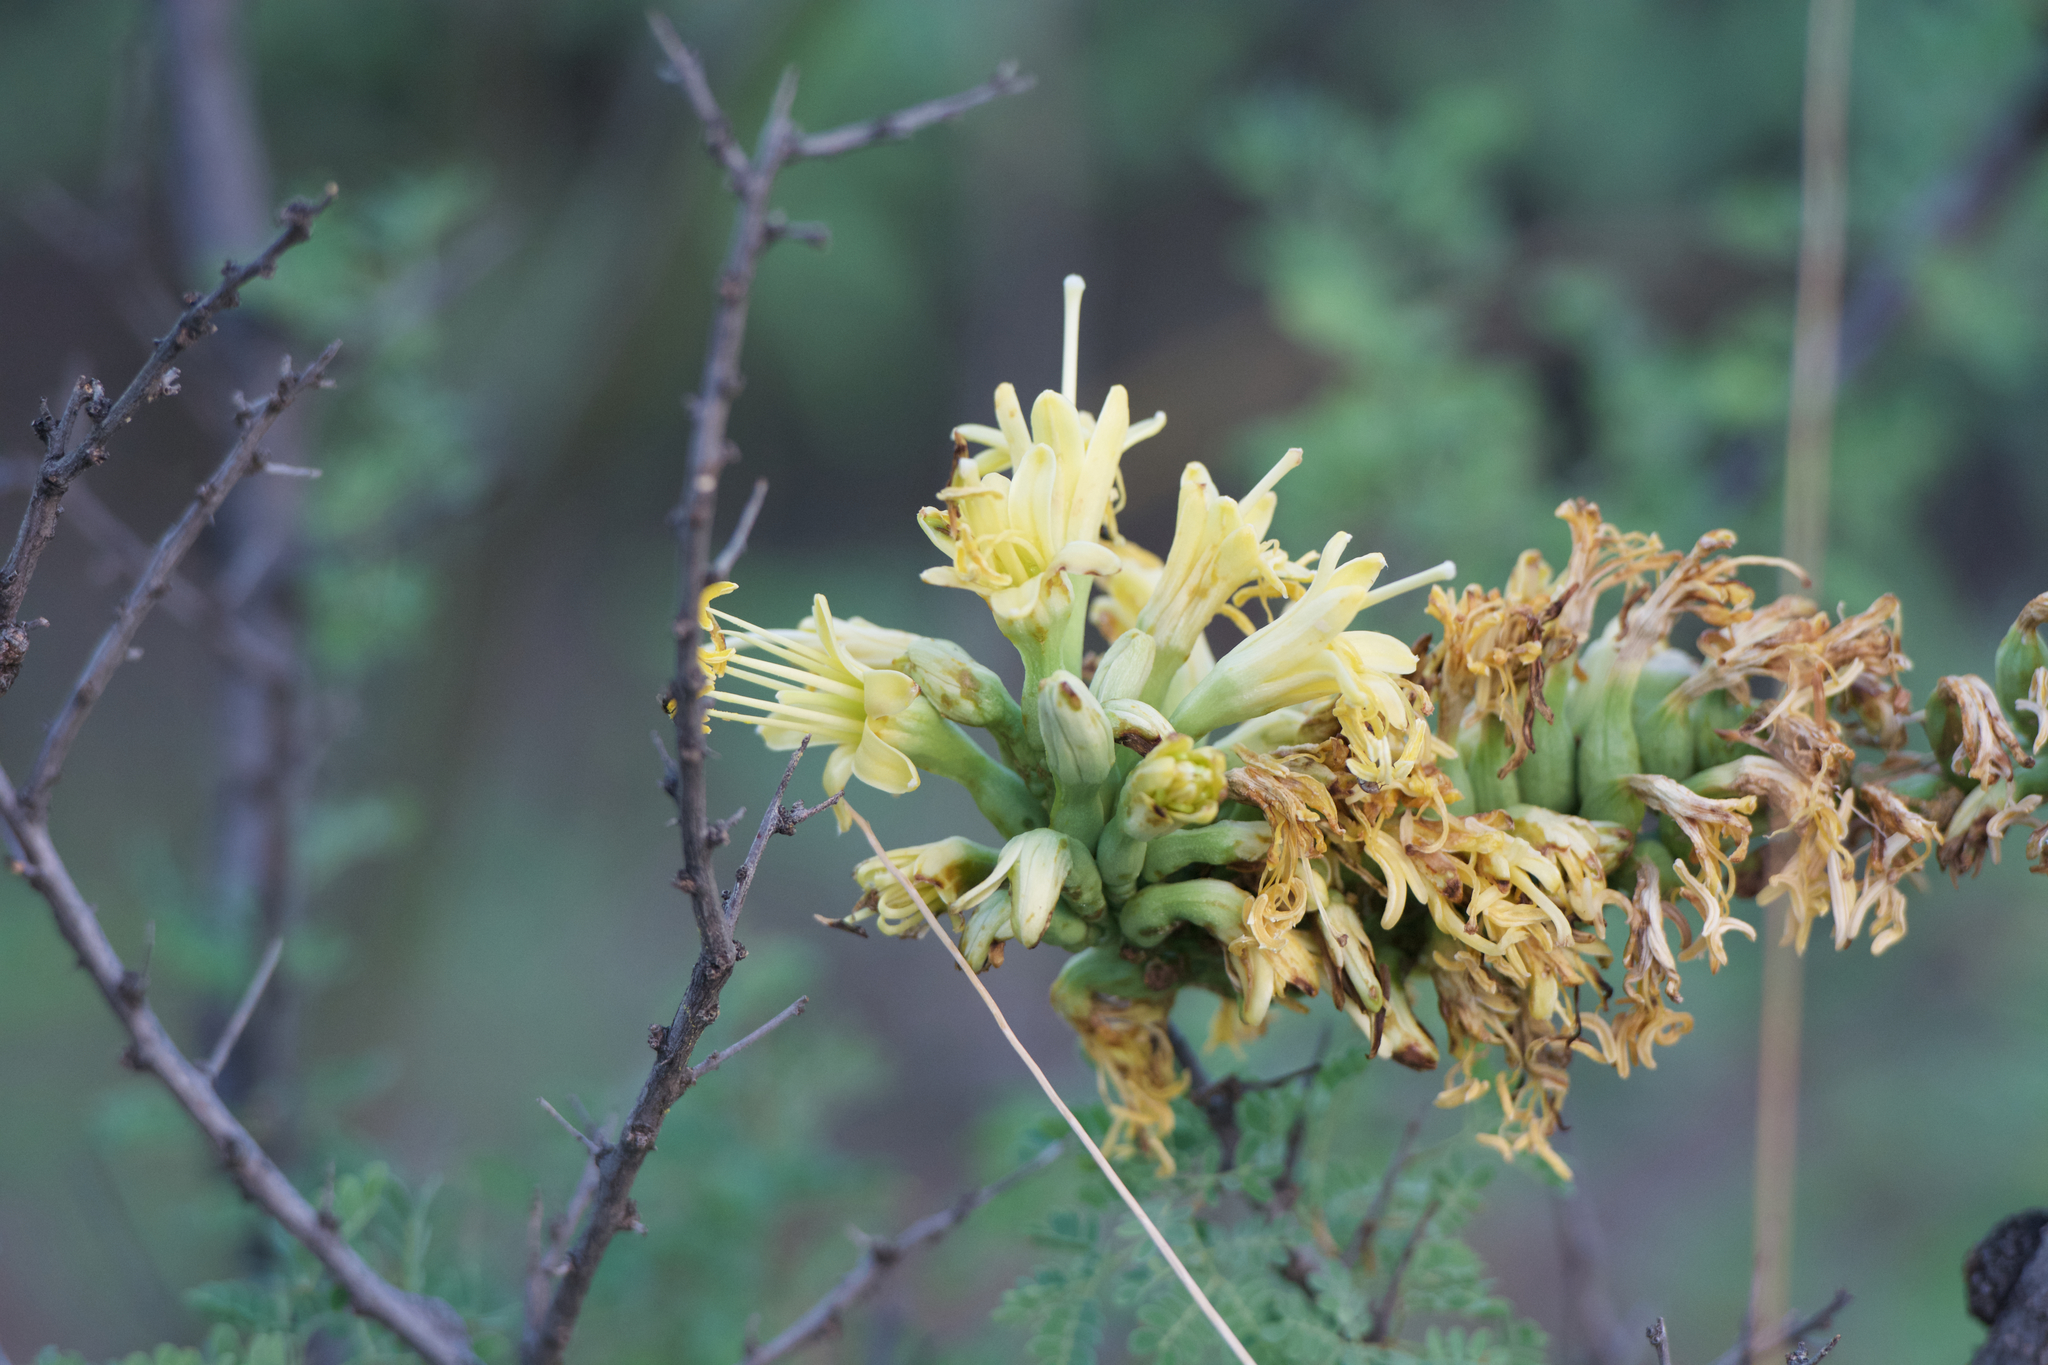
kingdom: Plantae
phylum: Tracheophyta
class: Liliopsida
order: Asparagales
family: Asparagaceae
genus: Agave
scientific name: Agave schottii
